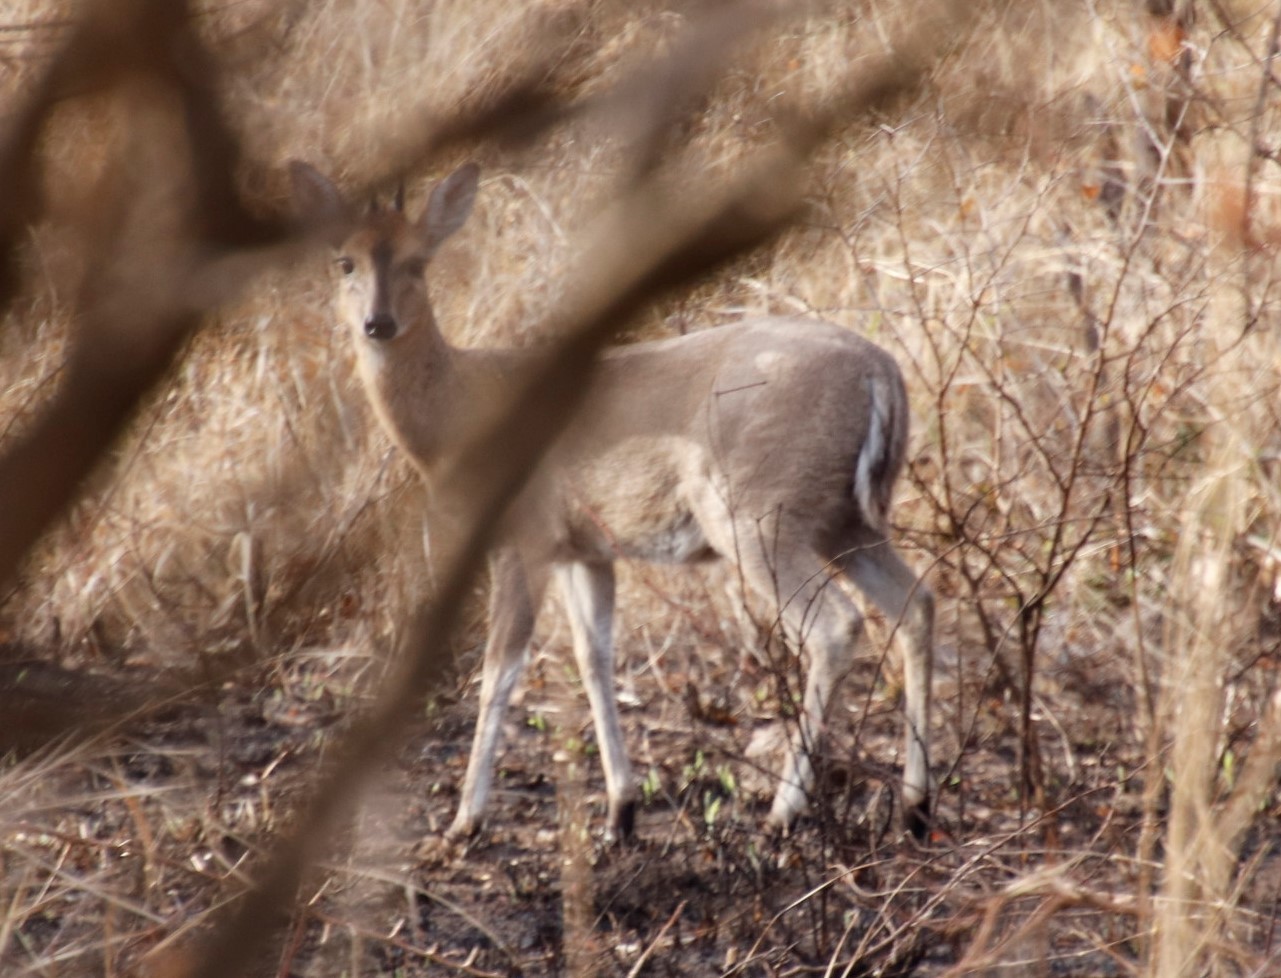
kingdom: Animalia
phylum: Chordata
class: Mammalia
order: Artiodactyla
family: Bovidae
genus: Sylvicapra
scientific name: Sylvicapra grimmia
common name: Bush duiker
